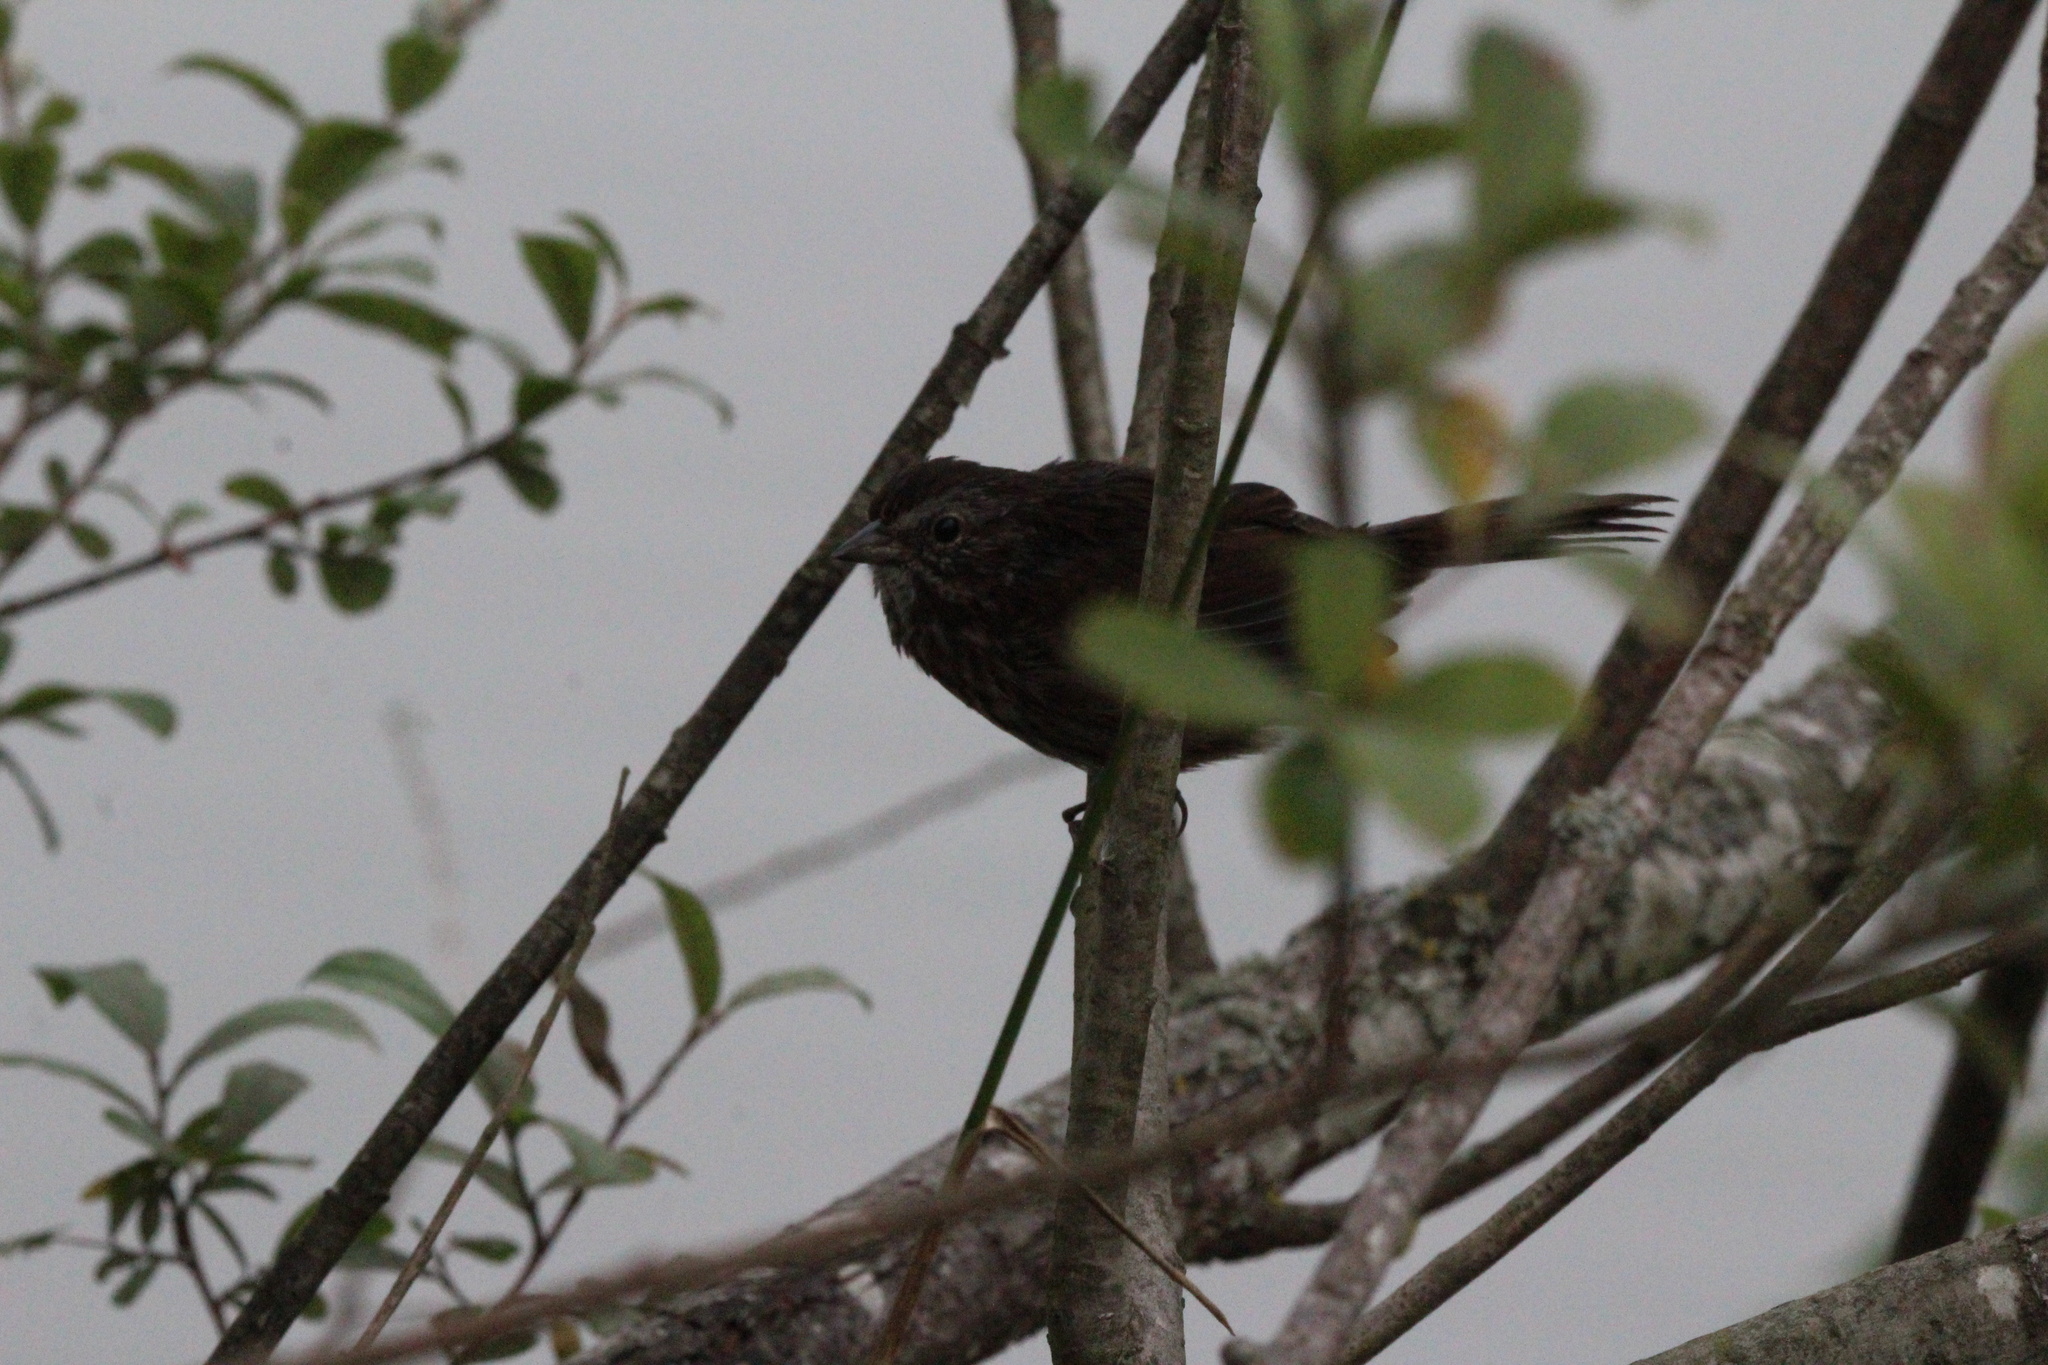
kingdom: Animalia
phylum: Chordata
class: Aves
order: Passeriformes
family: Passerellidae
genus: Melospiza
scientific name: Melospiza melodia
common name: Song sparrow
